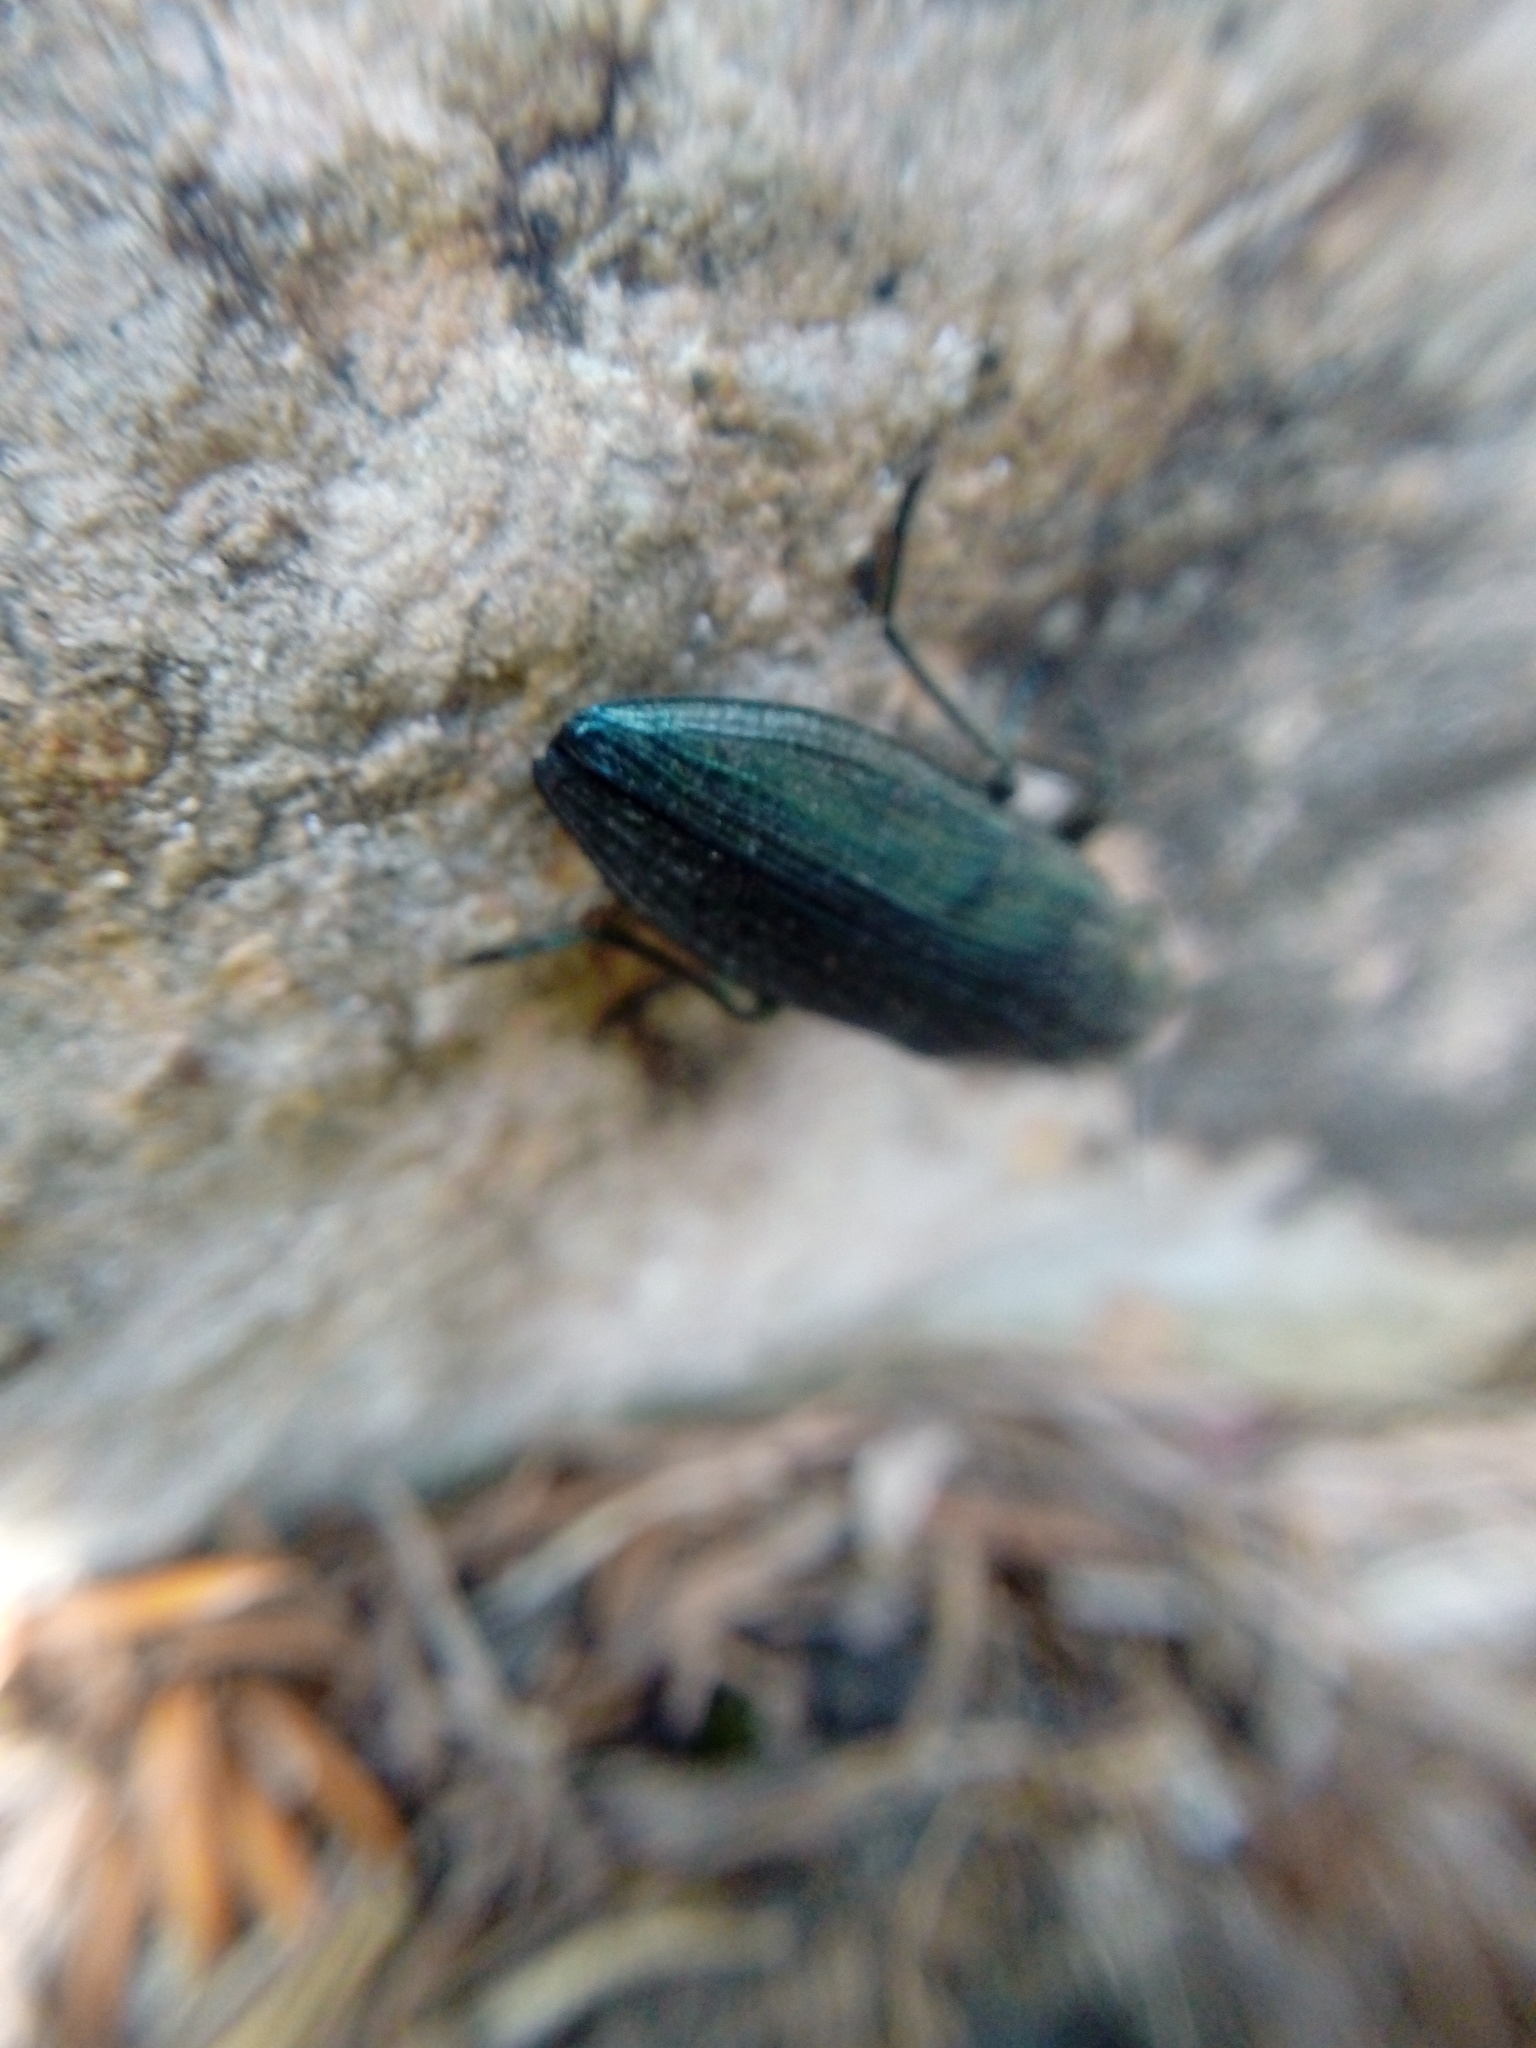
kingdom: Animalia
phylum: Arthropoda
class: Insecta
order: Coleoptera
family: Buprestidae
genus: Buprestis
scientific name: Buprestis rustica
